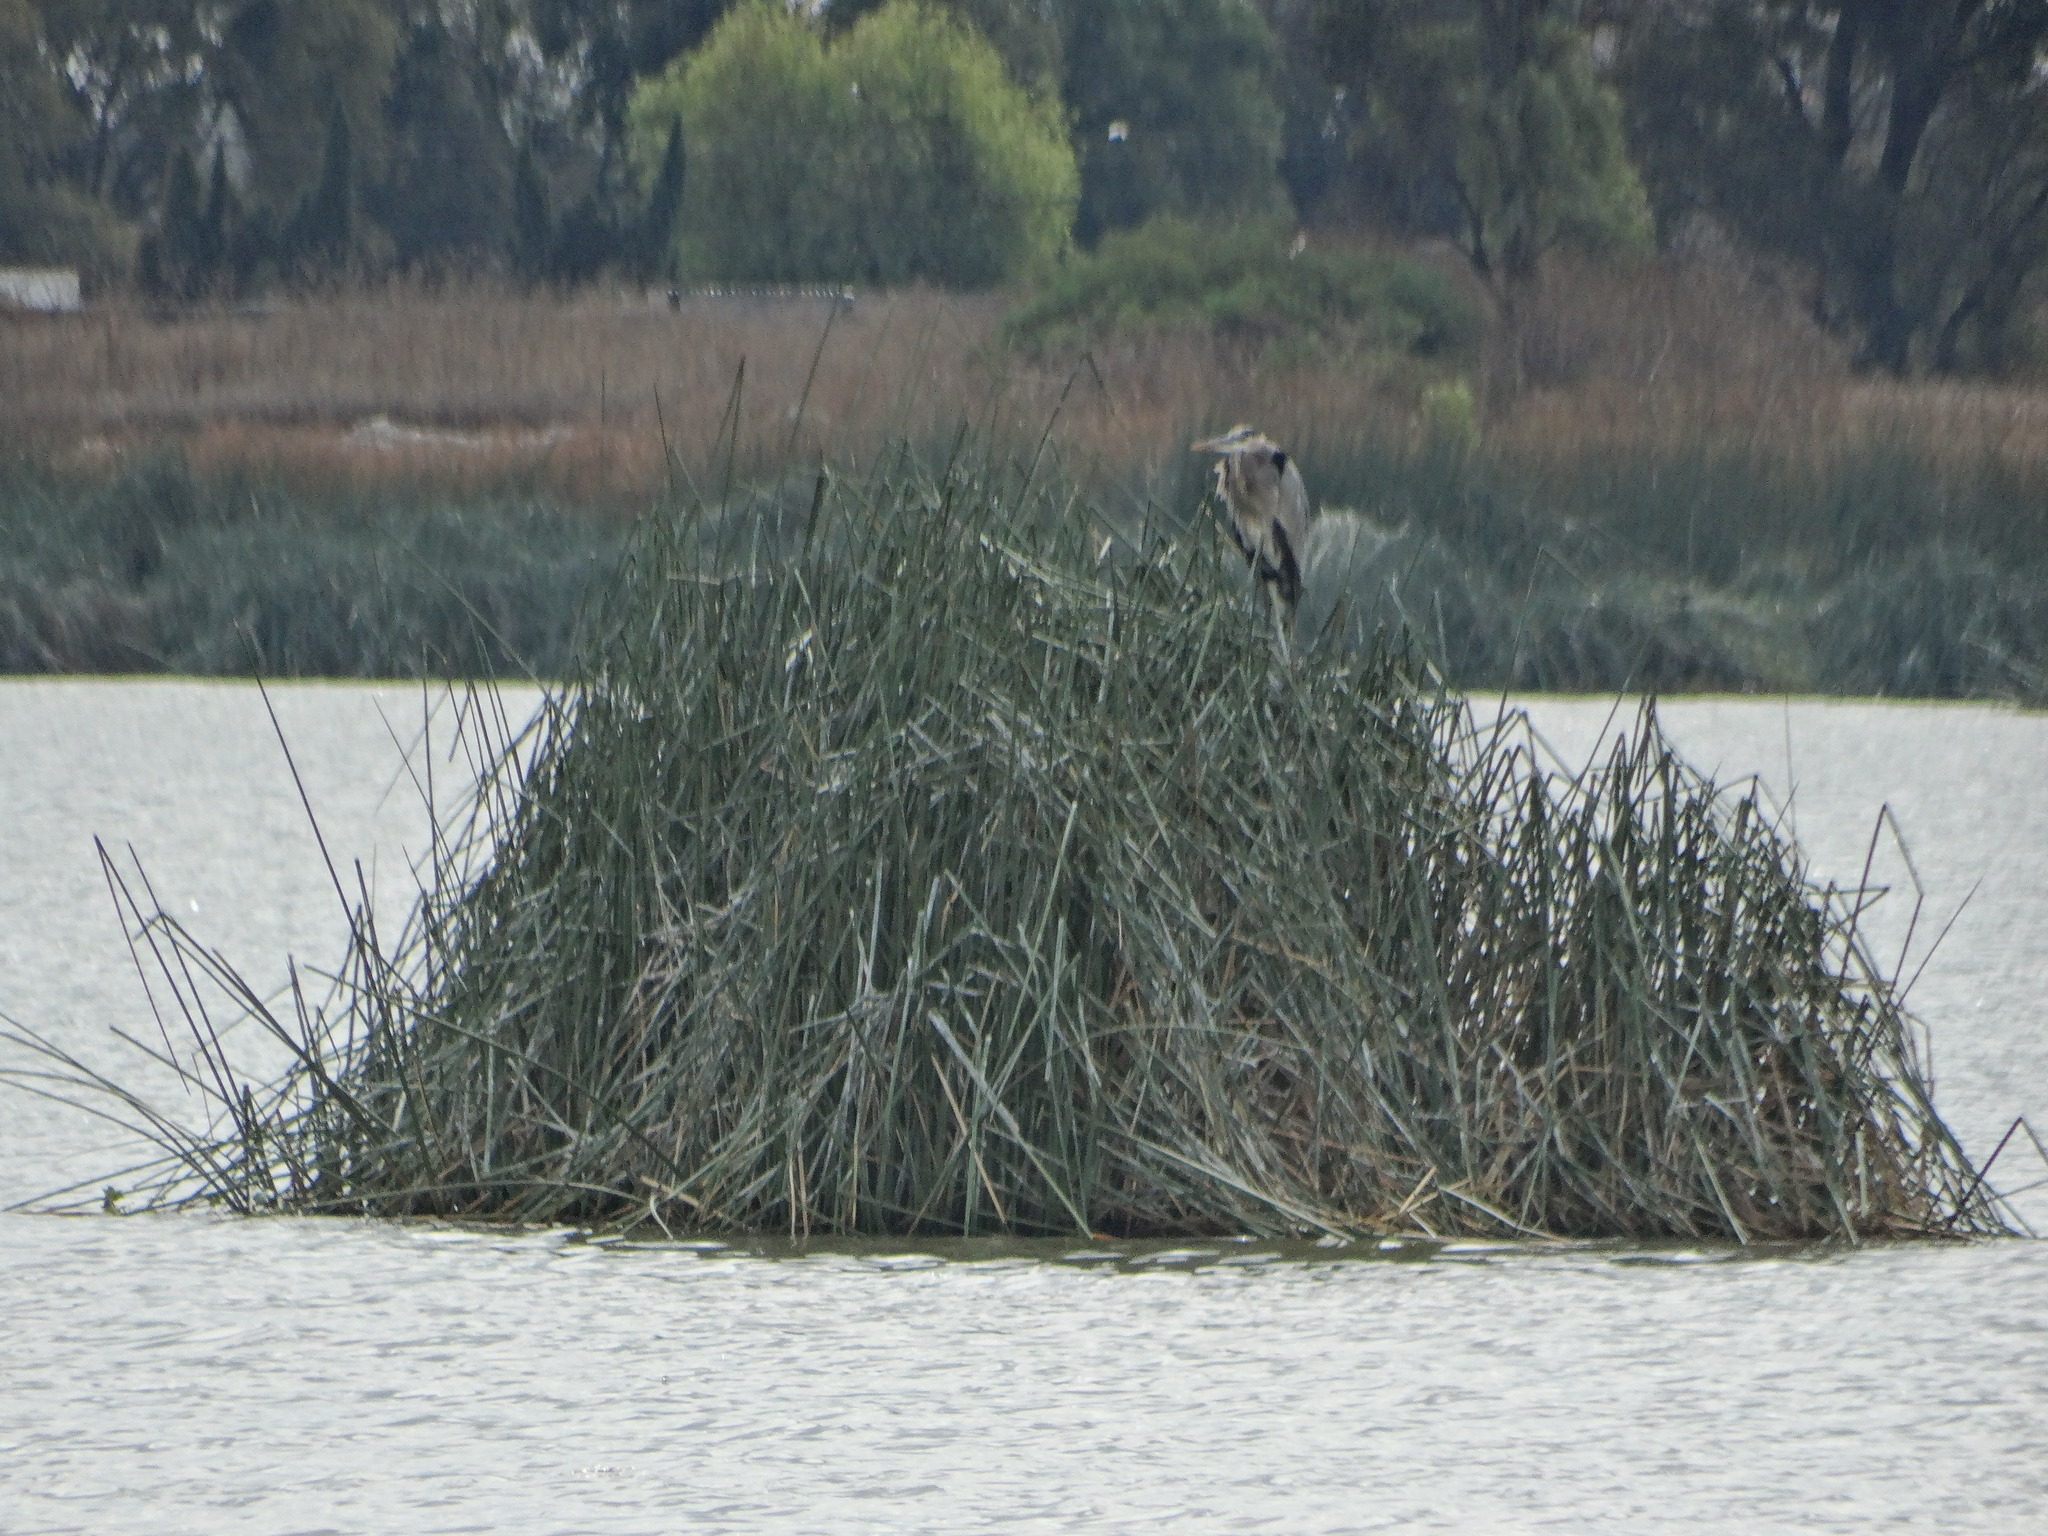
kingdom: Animalia
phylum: Chordata
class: Aves
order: Pelecaniformes
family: Ardeidae
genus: Ardea
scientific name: Ardea herodias
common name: Great blue heron
